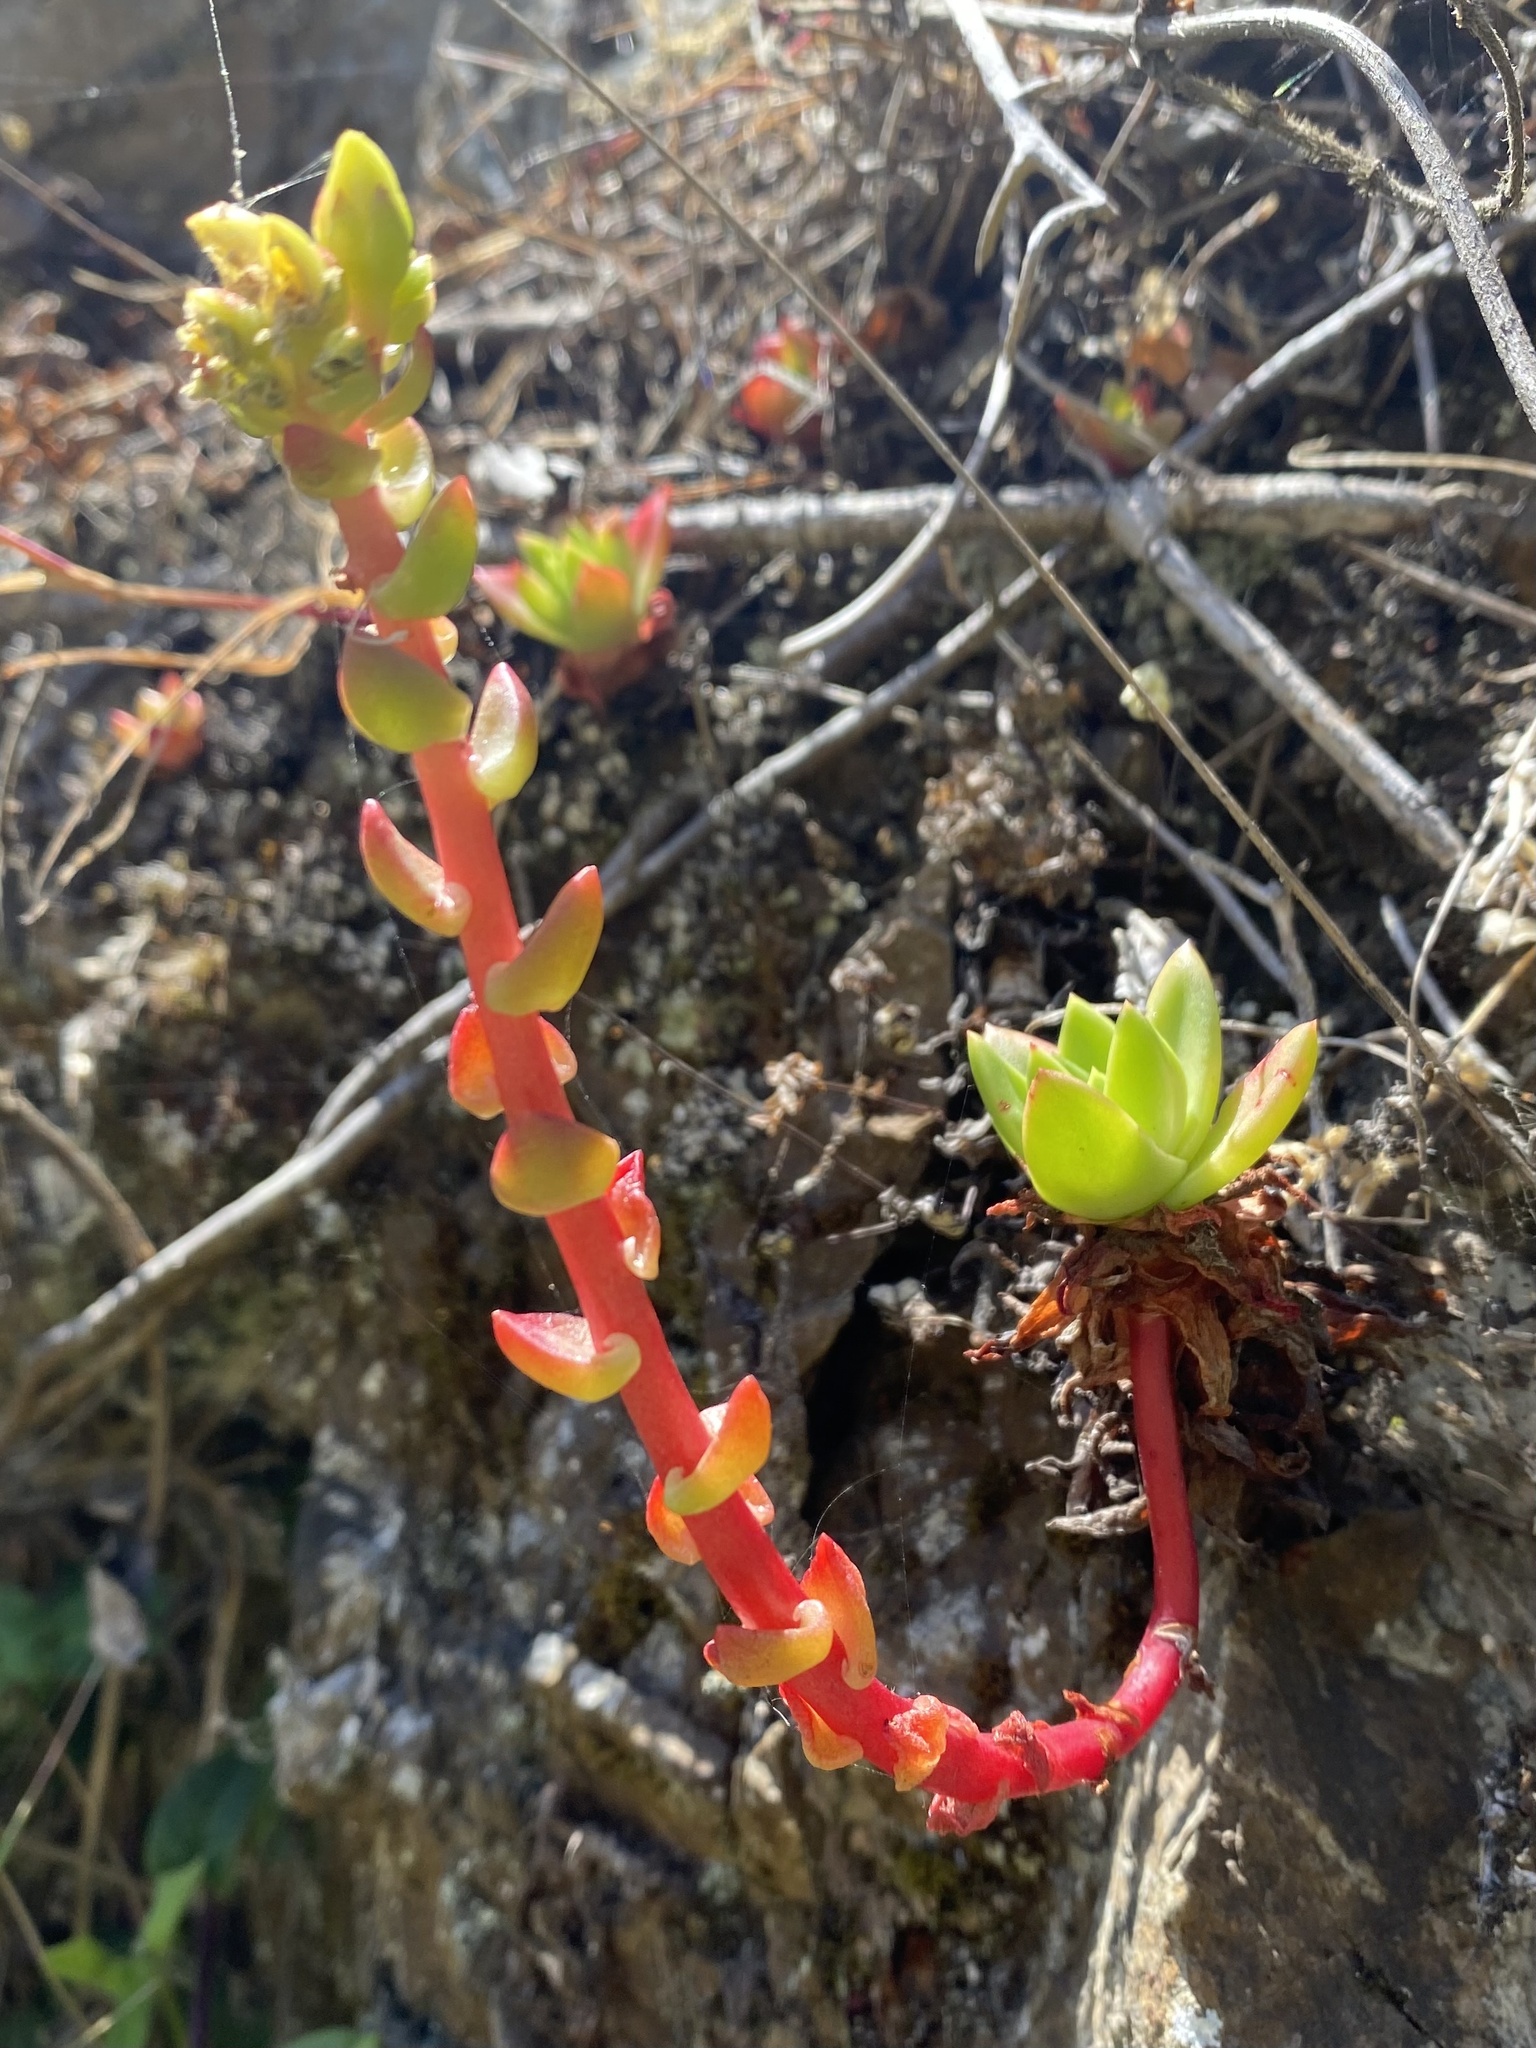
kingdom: Plantae
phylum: Tracheophyta
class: Magnoliopsida
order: Saxifragales
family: Crassulaceae
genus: Dudleya
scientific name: Dudleya farinosa
